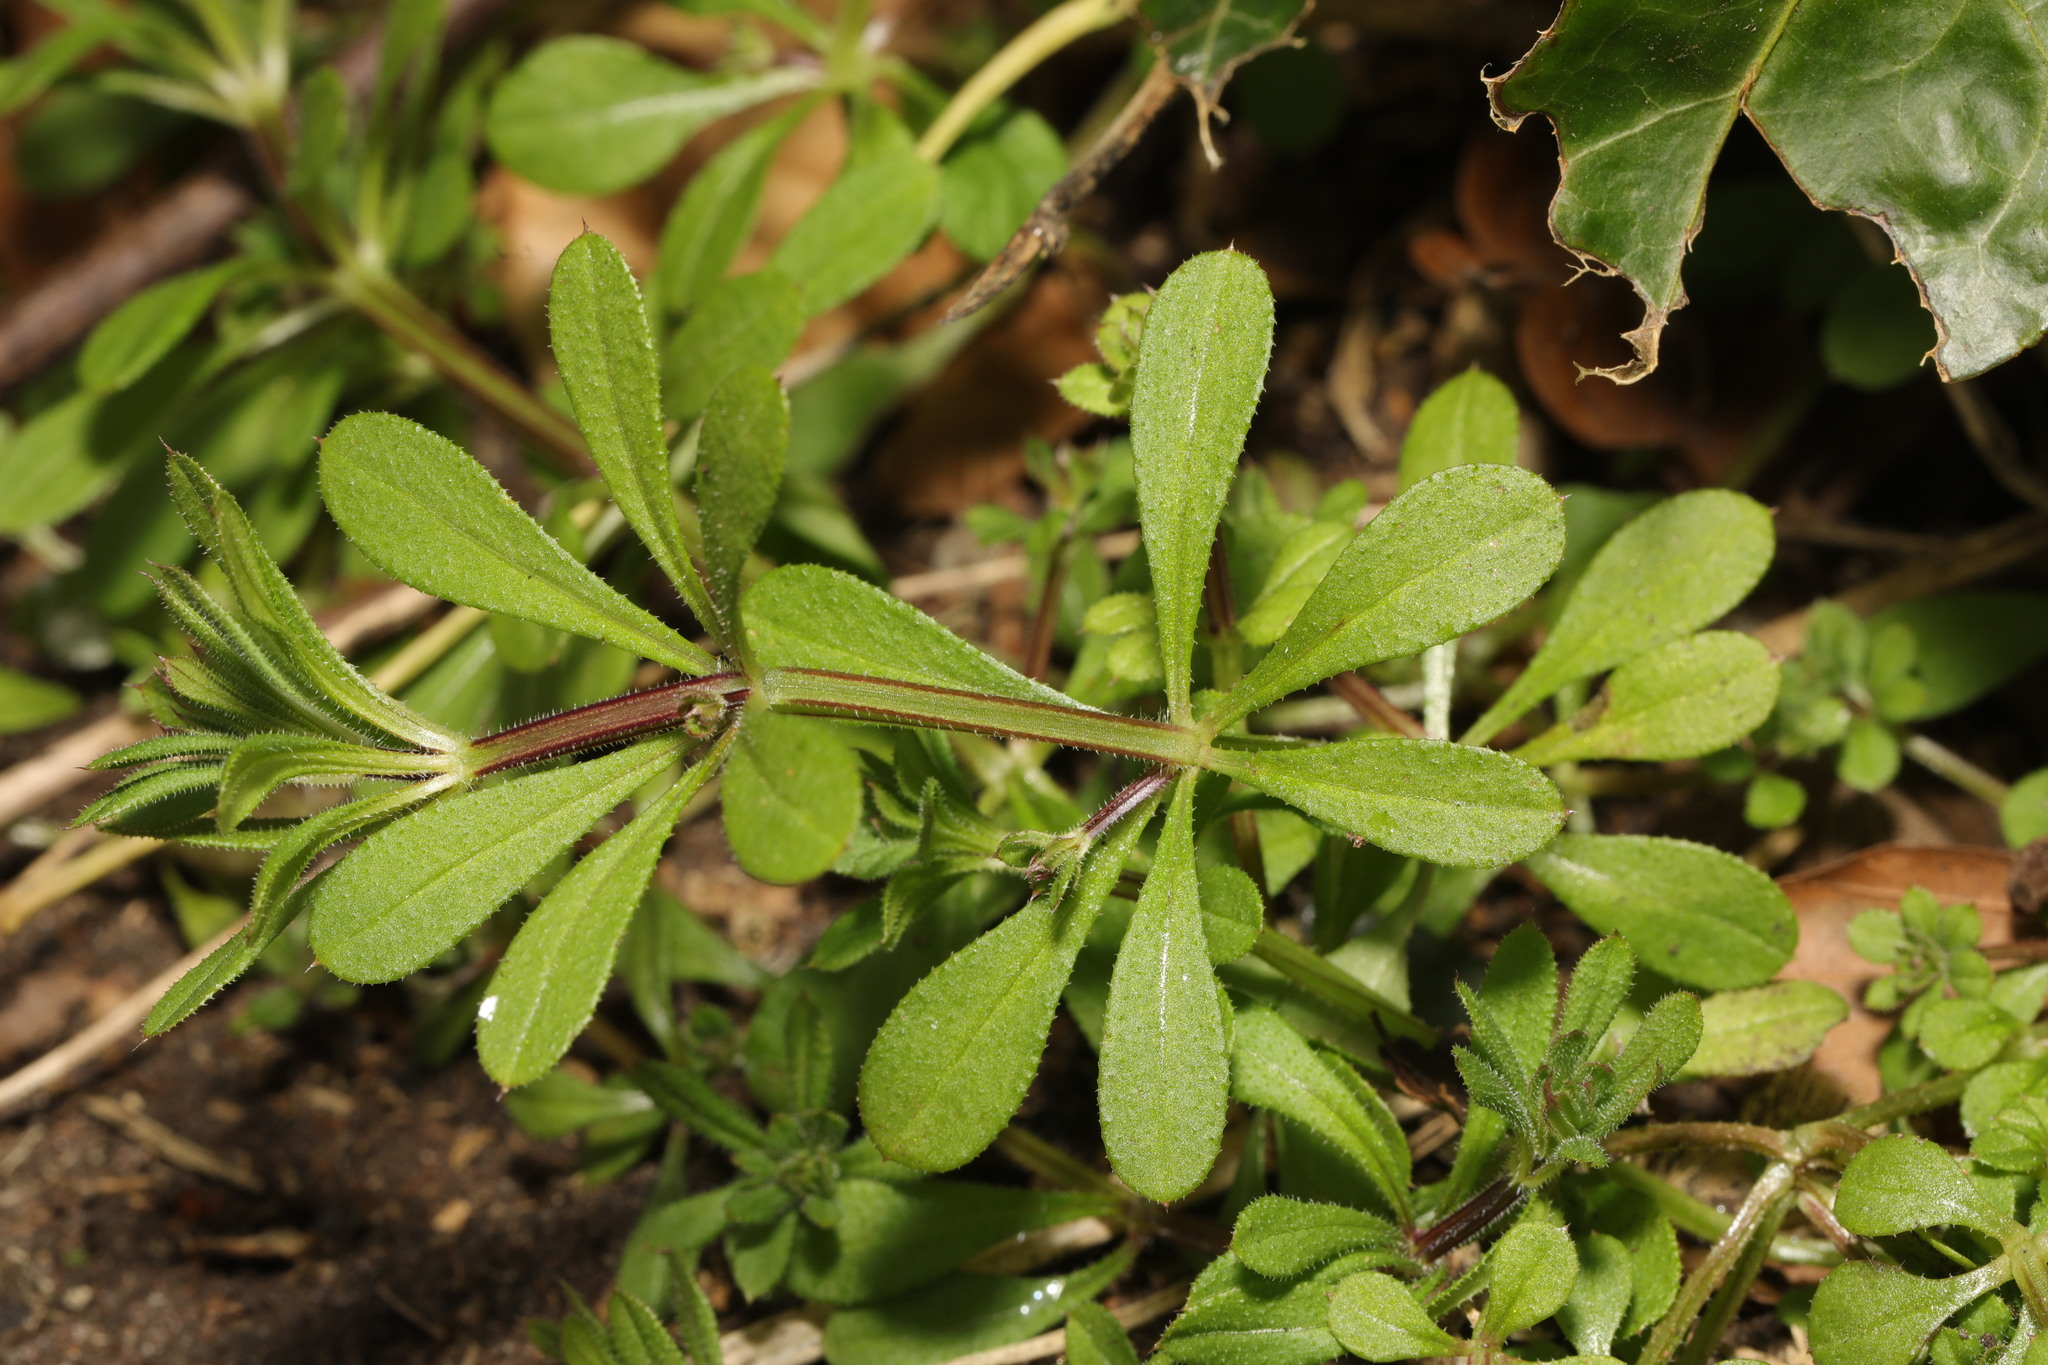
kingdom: Plantae
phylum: Tracheophyta
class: Magnoliopsida
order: Gentianales
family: Rubiaceae
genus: Galium
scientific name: Galium aparine
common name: Cleavers
